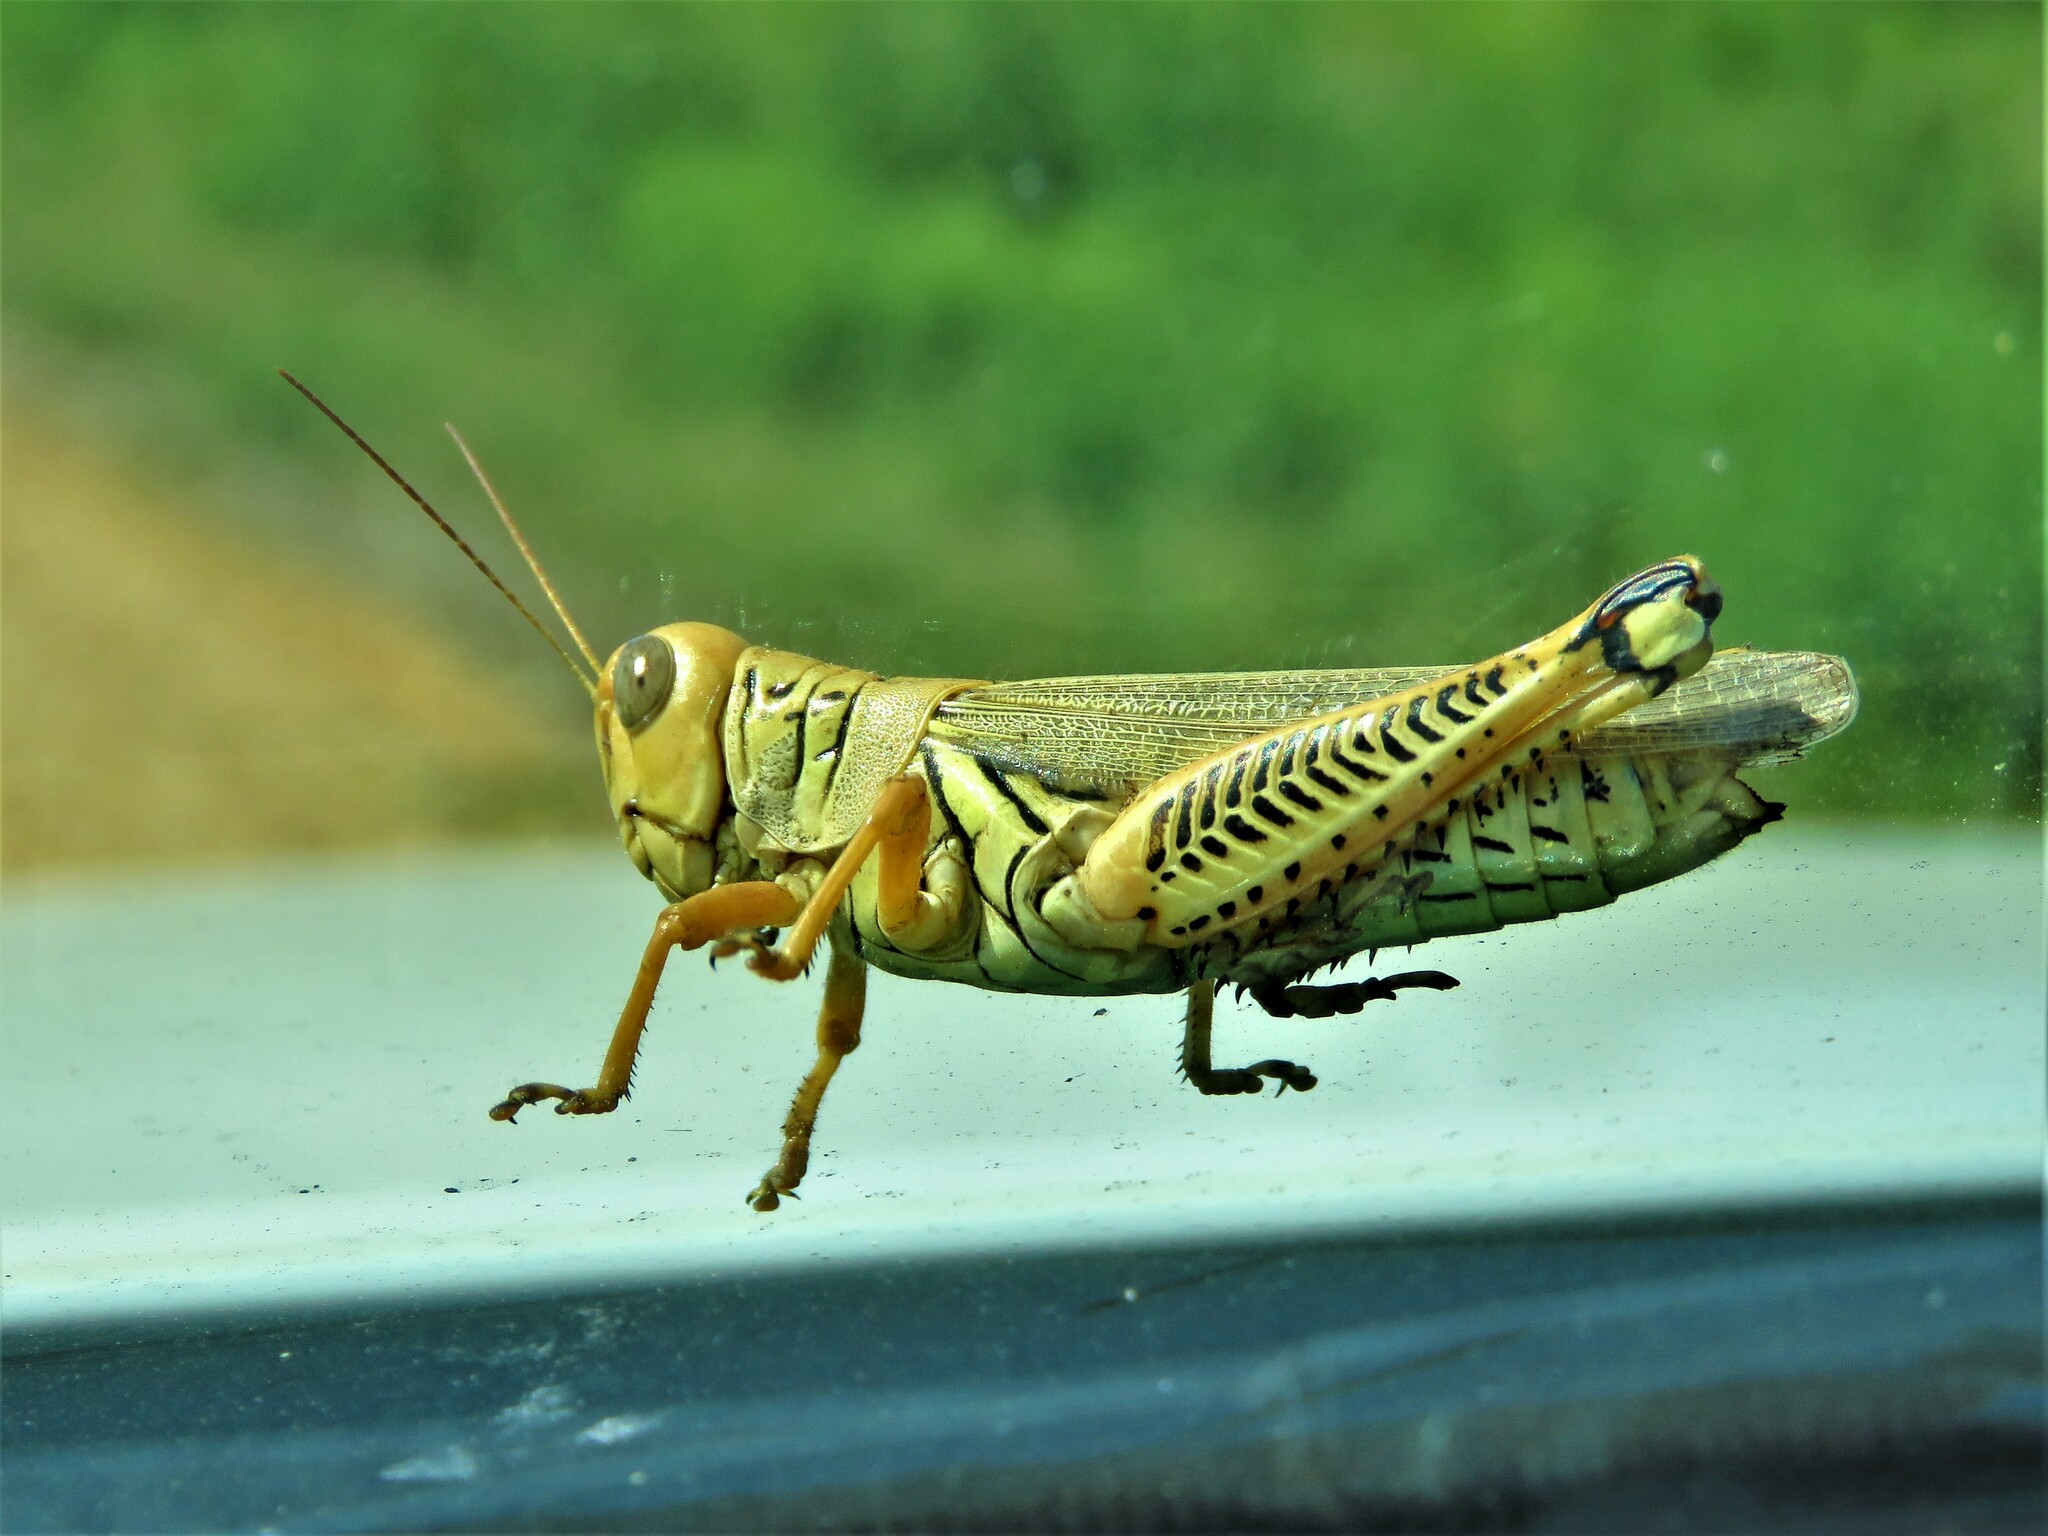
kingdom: Animalia
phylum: Arthropoda
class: Insecta
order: Orthoptera
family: Acrididae
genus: Melanoplus
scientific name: Melanoplus differentialis
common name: Differential grasshopper
